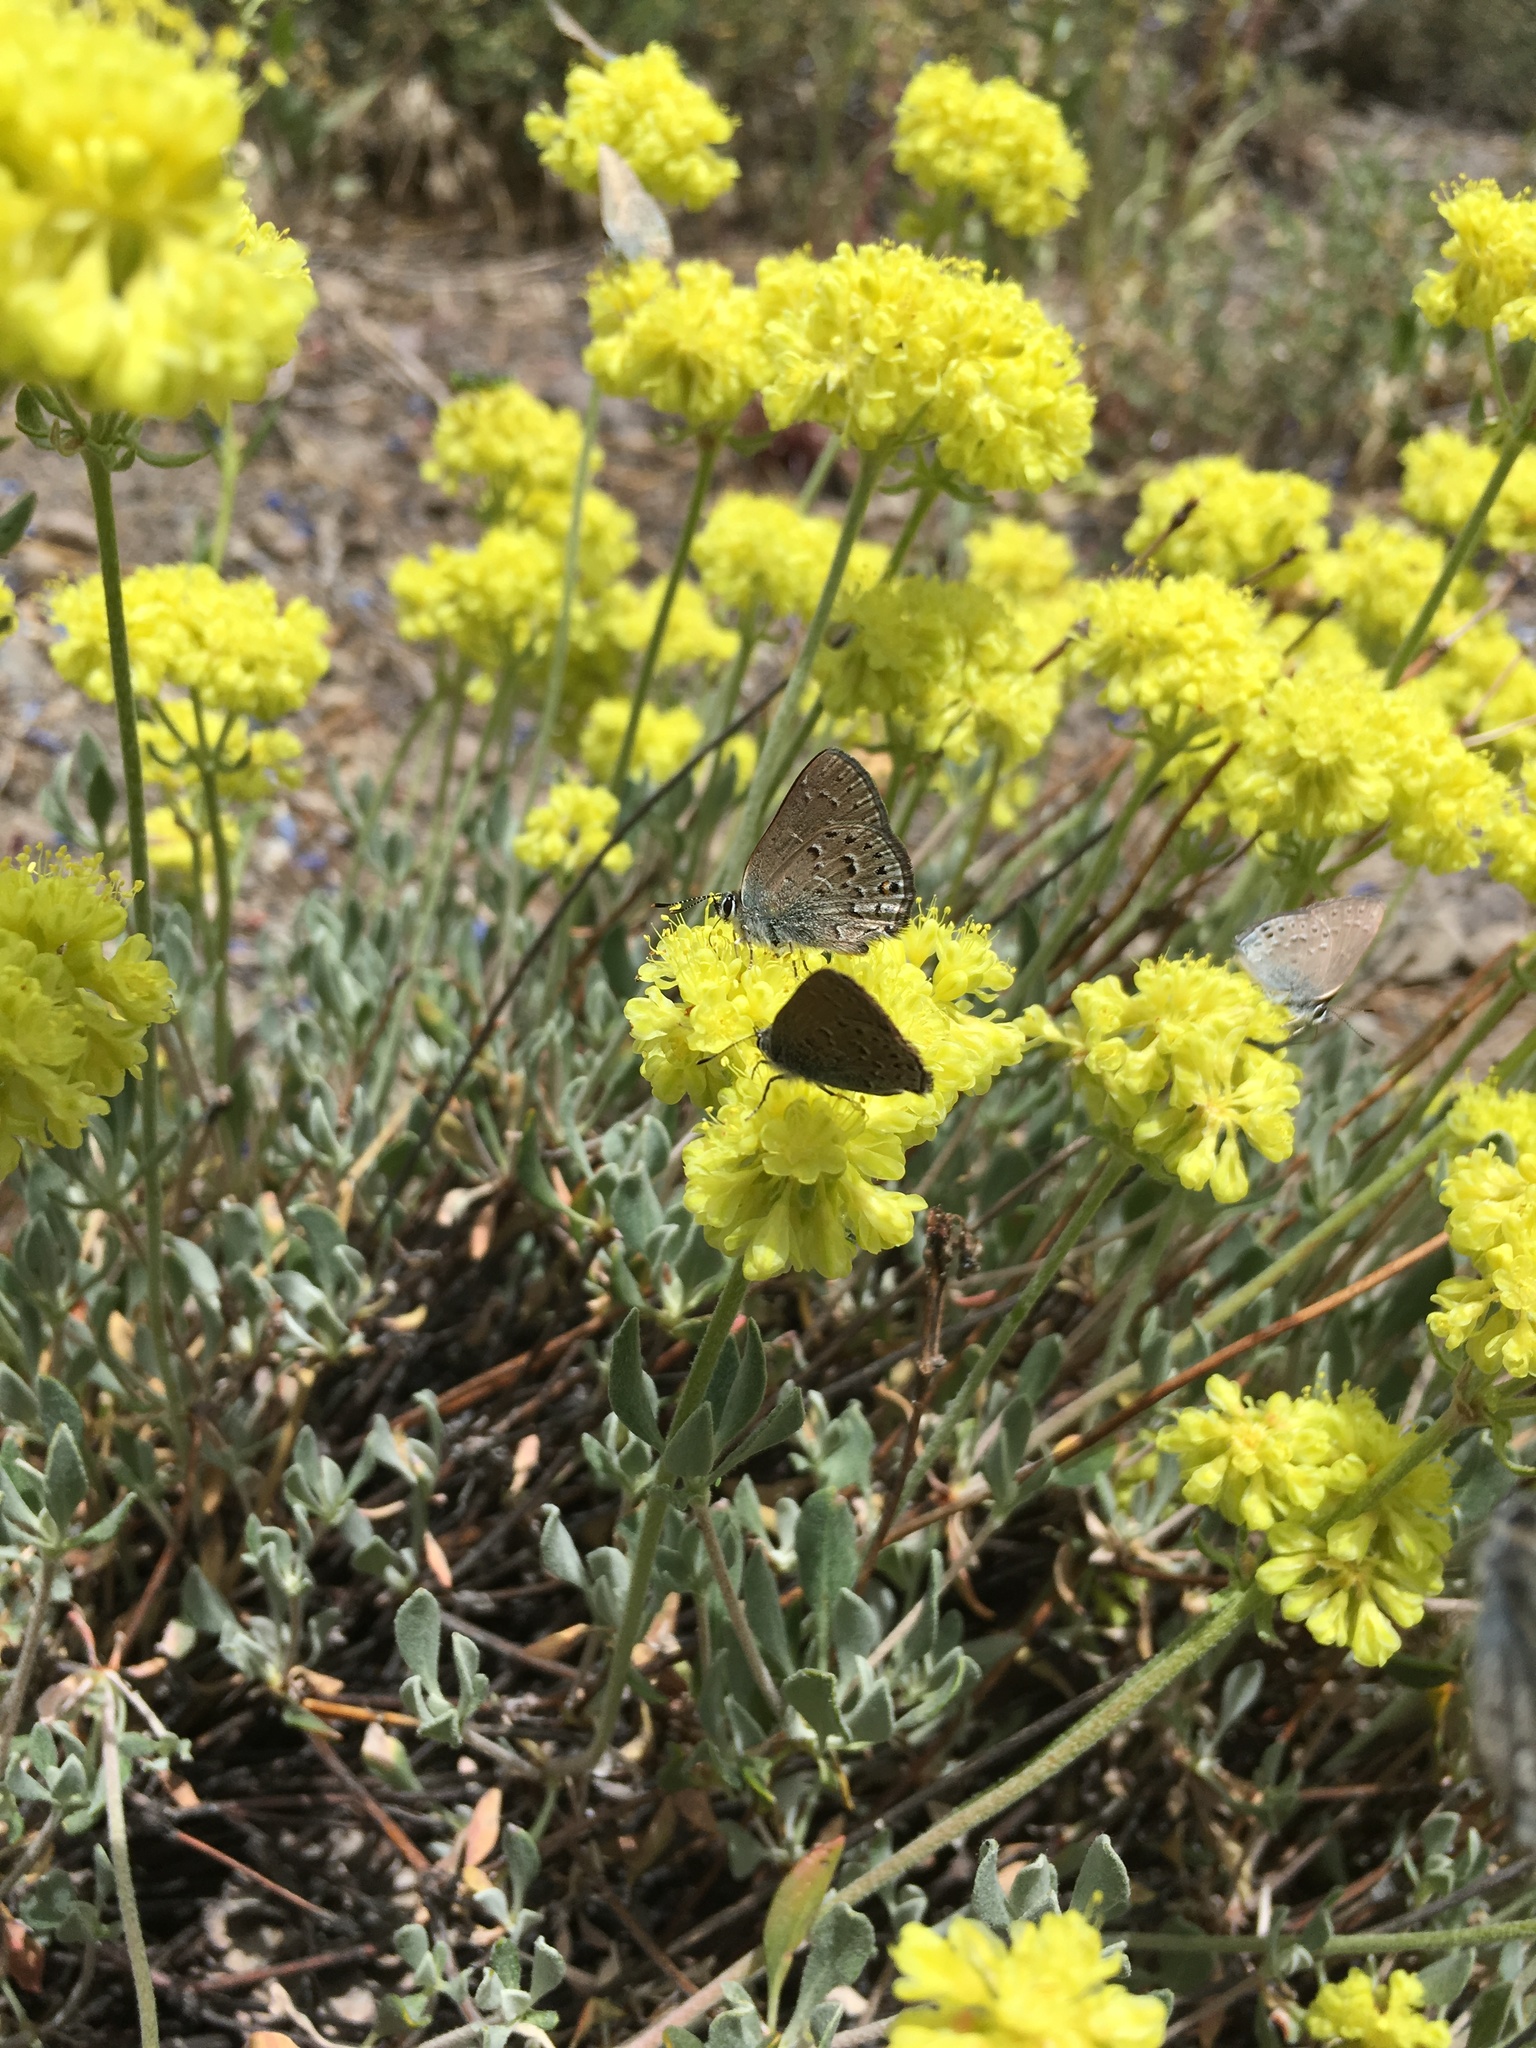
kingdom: Animalia
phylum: Arthropoda
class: Insecta
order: Lepidoptera
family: Lycaenidae
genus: Satyrium
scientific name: Satyrium behrii
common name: Behr's hairstreak
